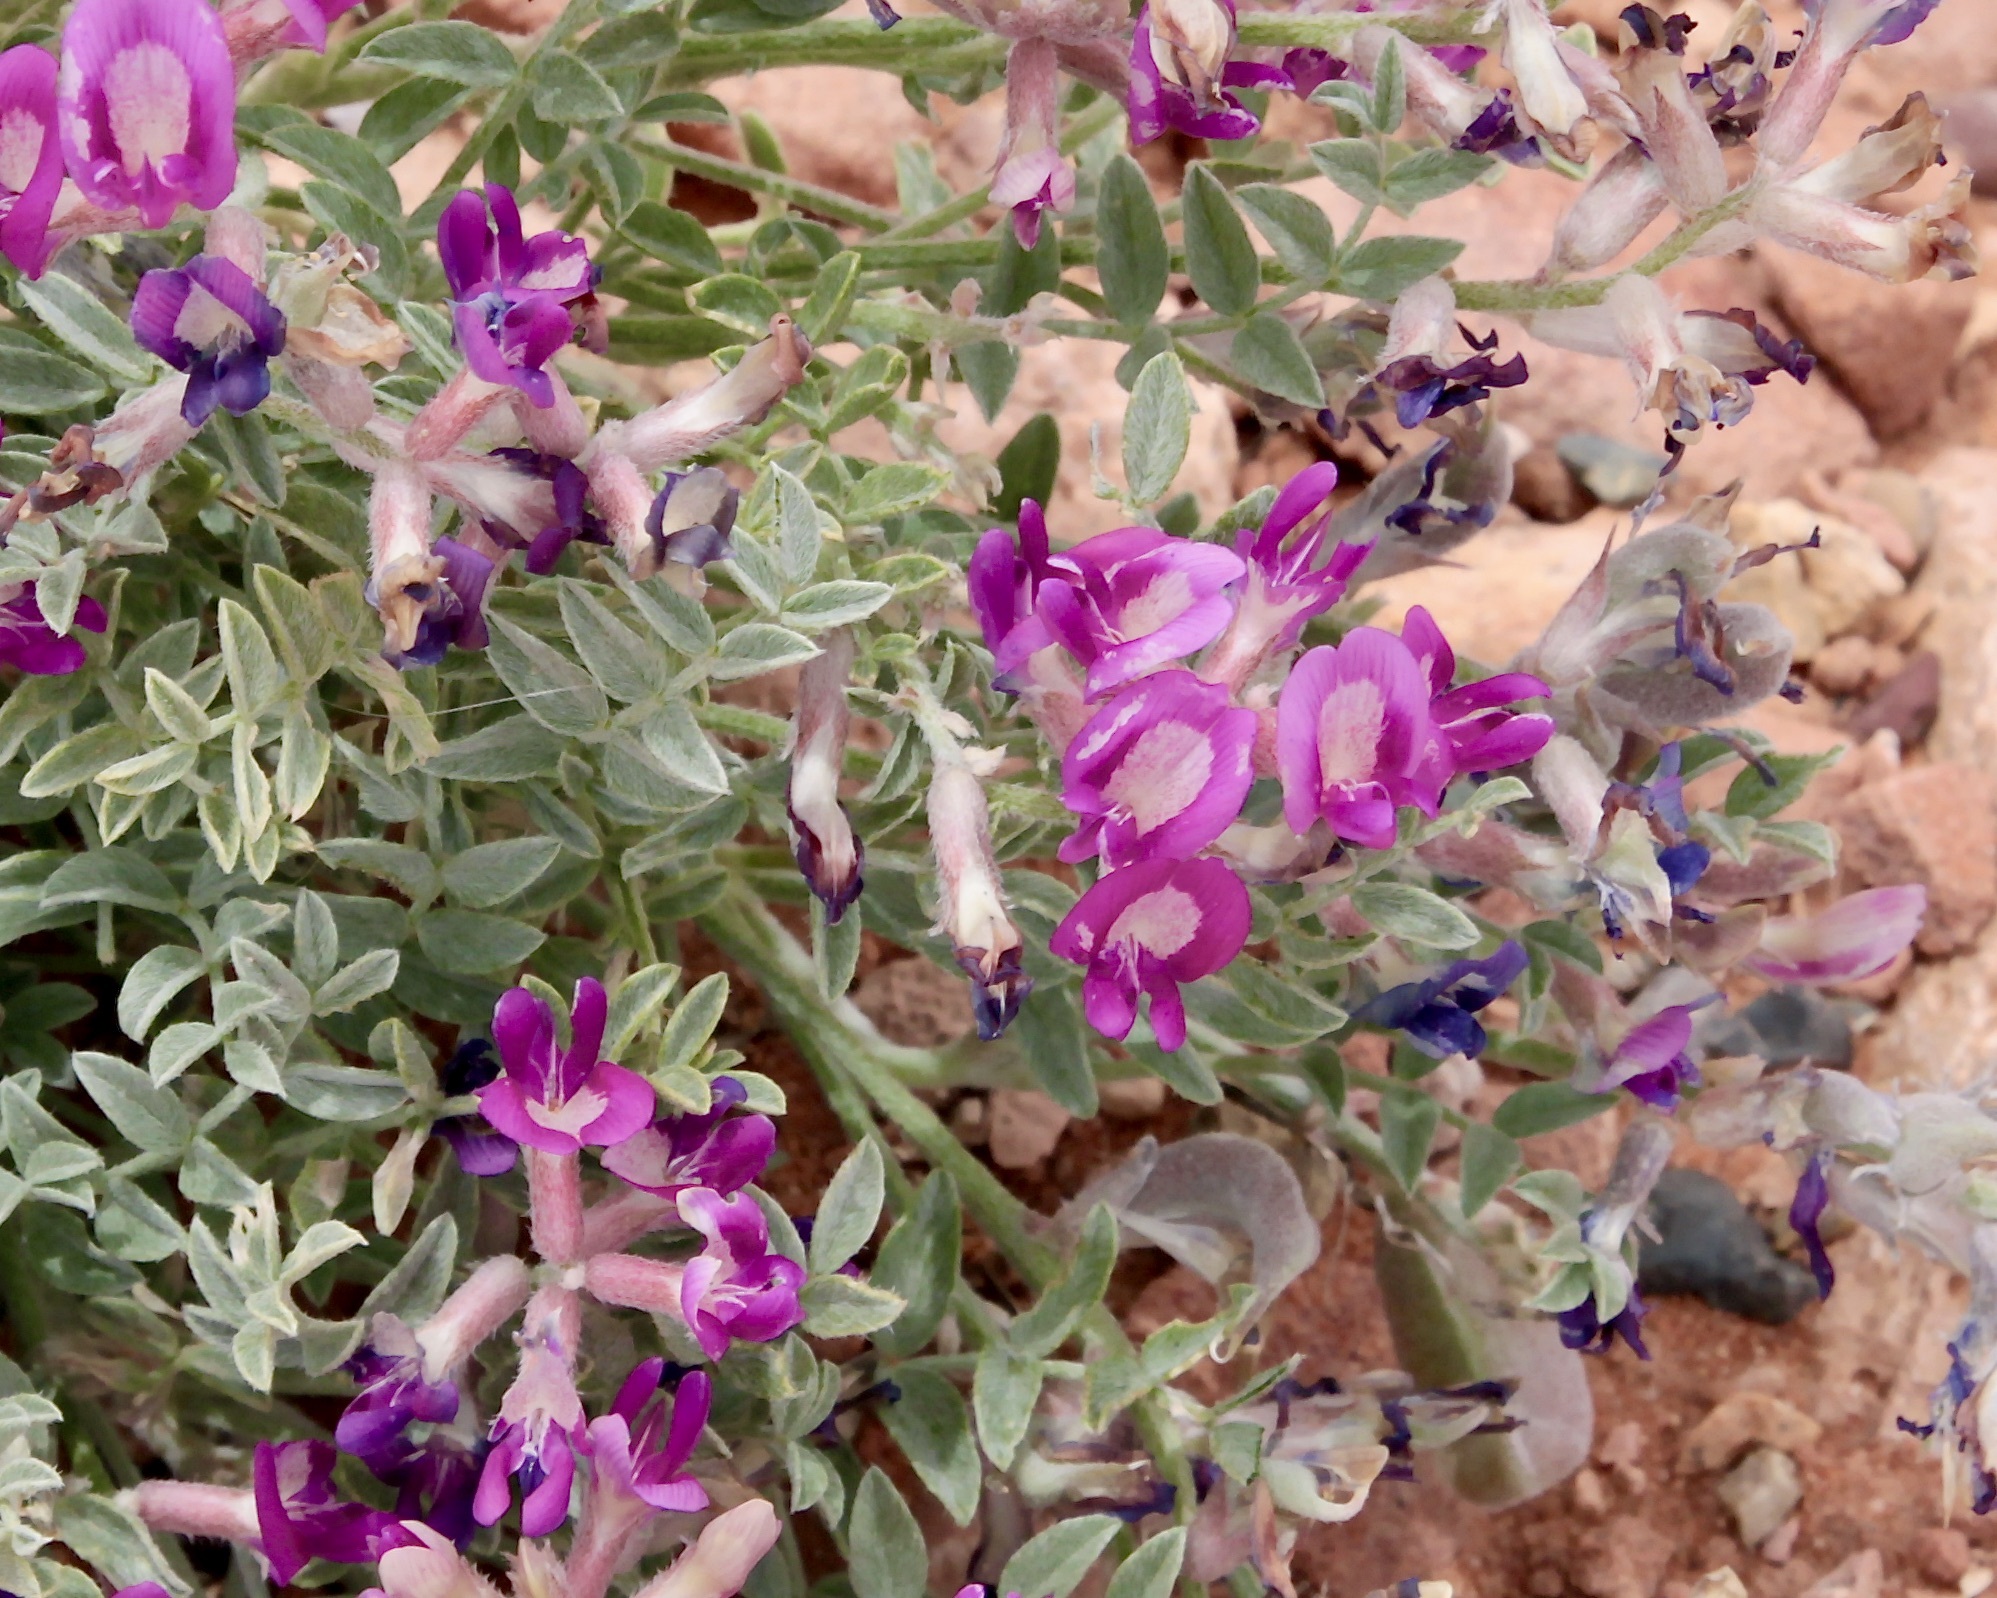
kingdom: Plantae
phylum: Tracheophyta
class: Magnoliopsida
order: Fabales
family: Fabaceae
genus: Astragalus
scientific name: Astragalus amphioxys
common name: Crescent milk-vetch
